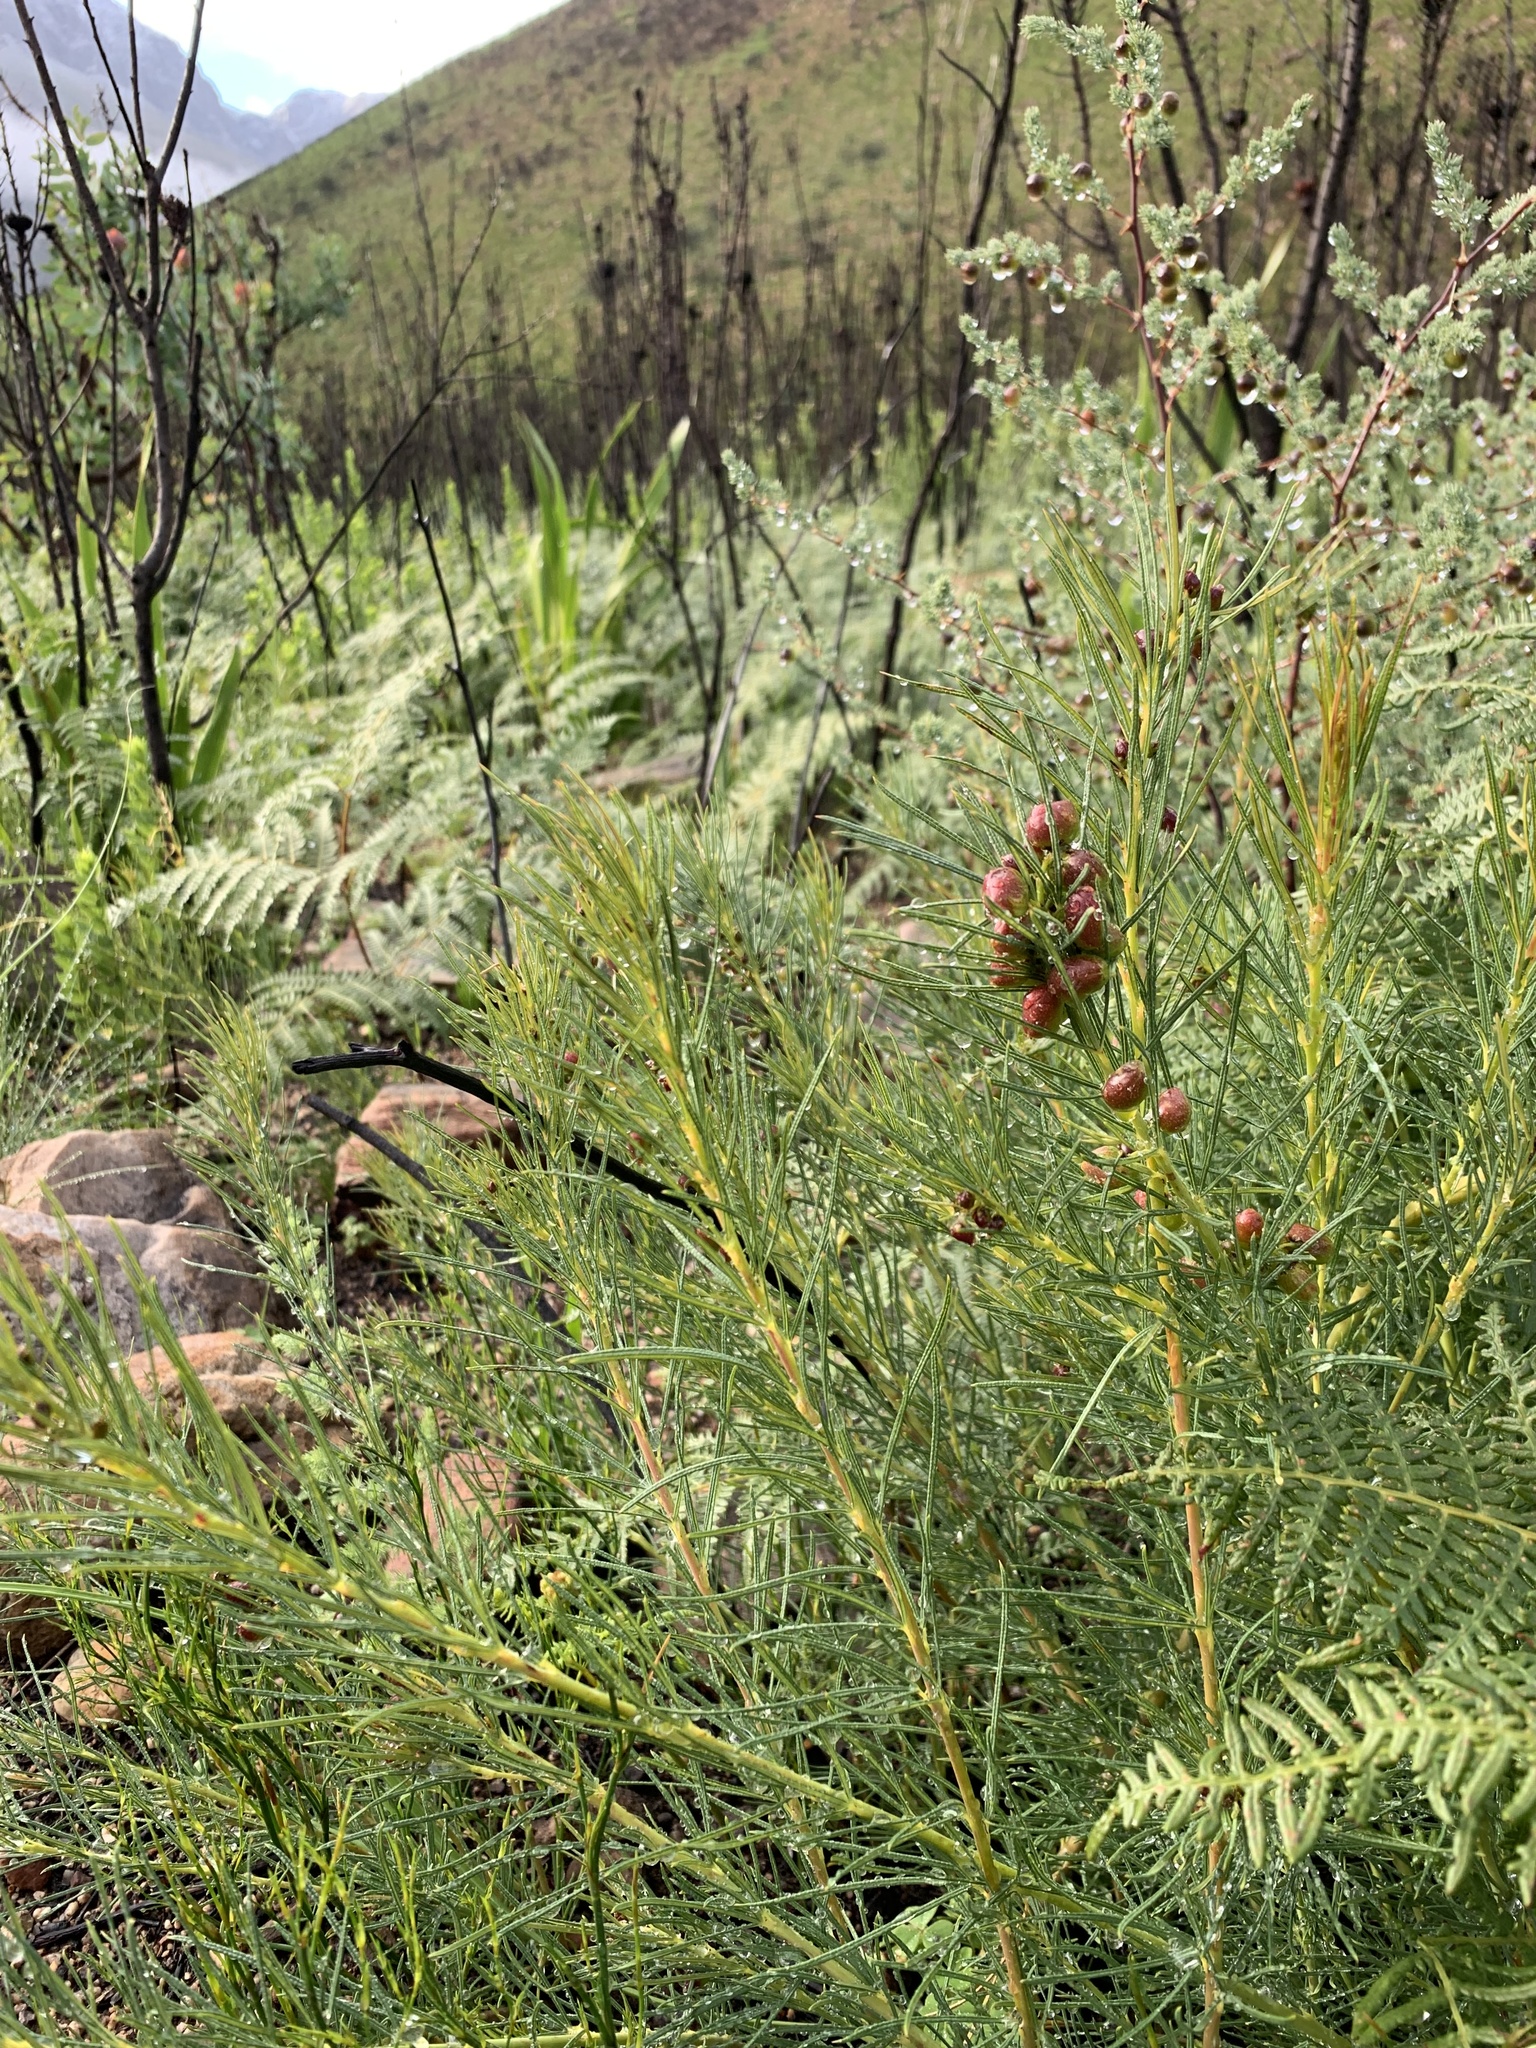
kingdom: Plantae
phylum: Tracheophyta
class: Magnoliopsida
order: Sapindales
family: Anacardiaceae
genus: Searsia
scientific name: Searsia rosmarinifolia
